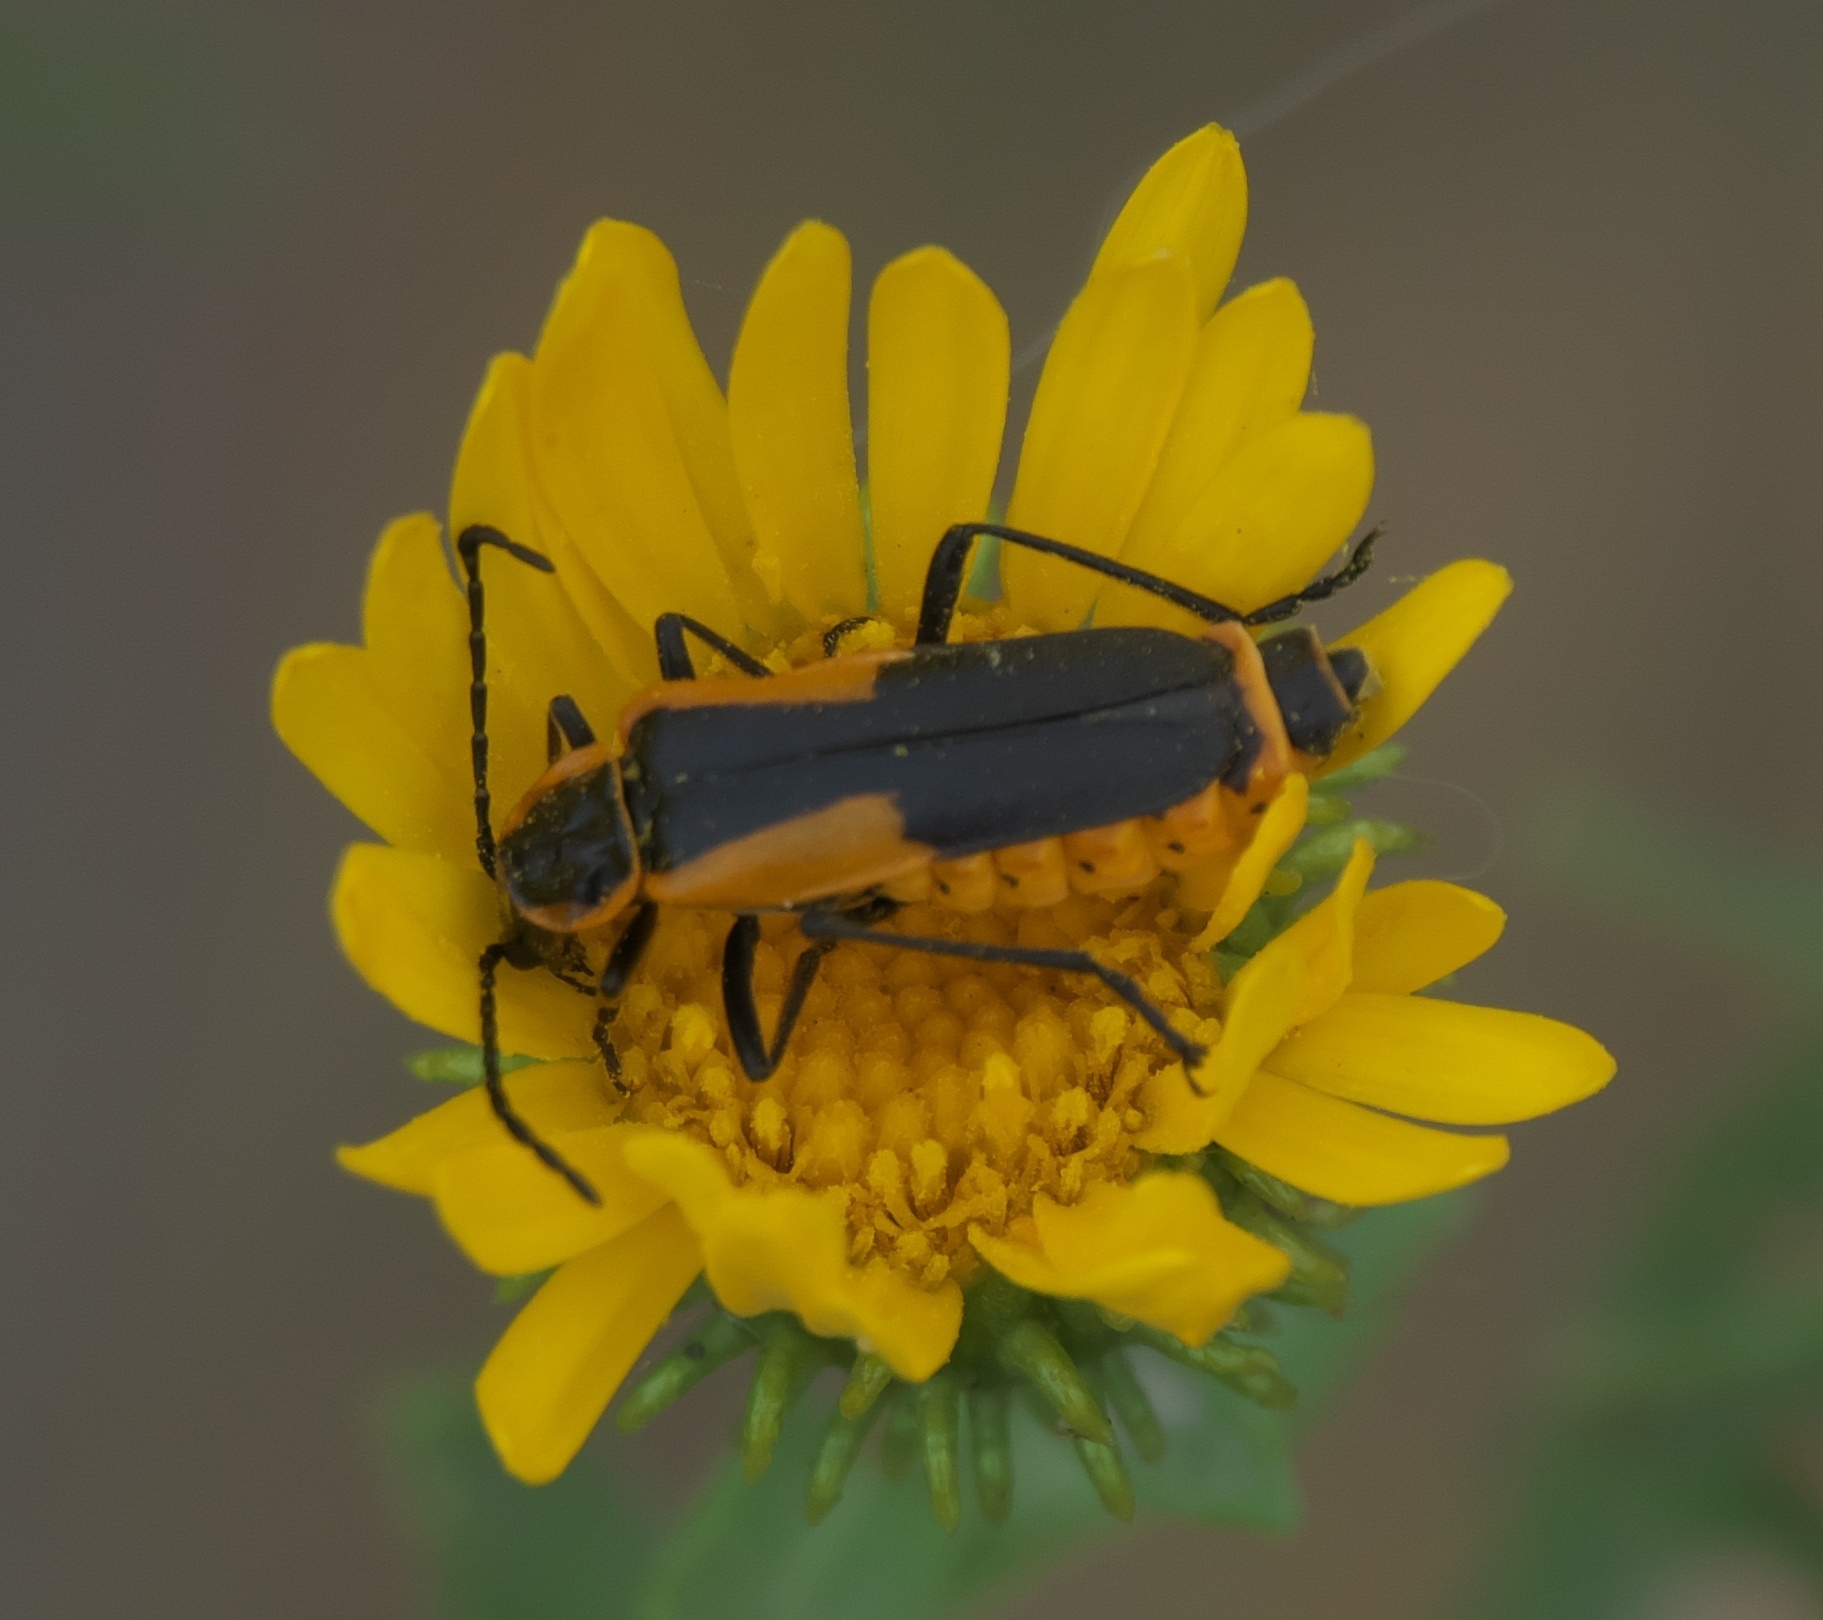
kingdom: Animalia
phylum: Arthropoda
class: Insecta
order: Coleoptera
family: Cantharidae
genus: Chauliognathus
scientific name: Chauliognathus deceptus
